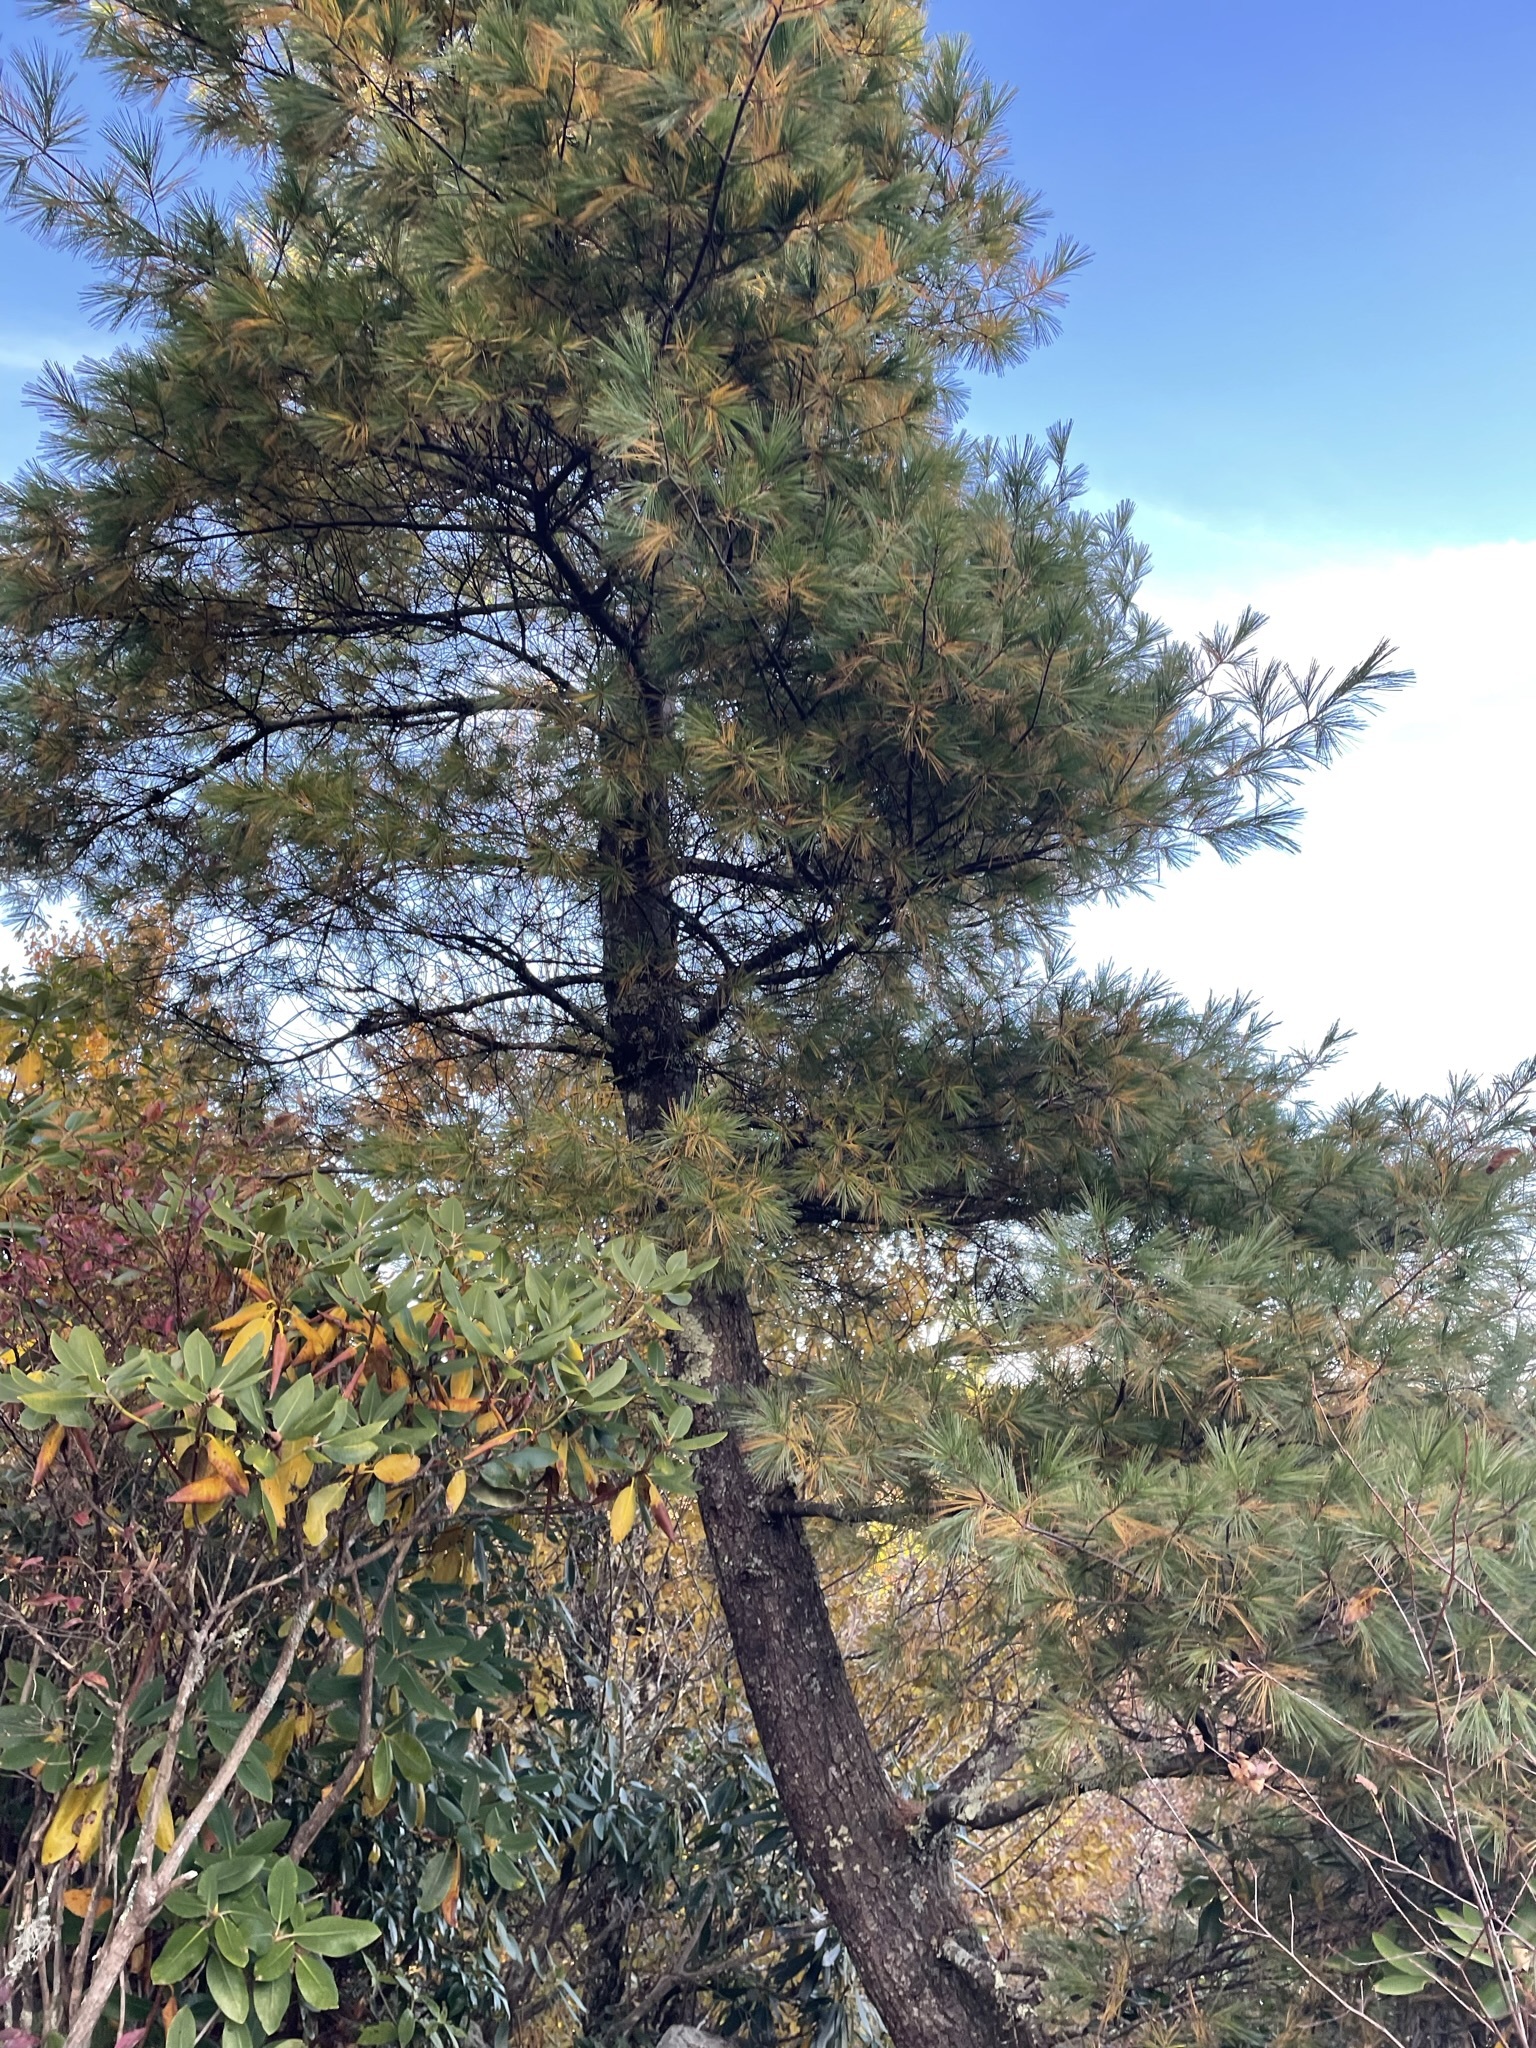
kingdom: Plantae
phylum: Tracheophyta
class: Pinopsida
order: Pinales
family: Pinaceae
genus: Pinus
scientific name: Pinus strobus
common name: Weymouth pine
